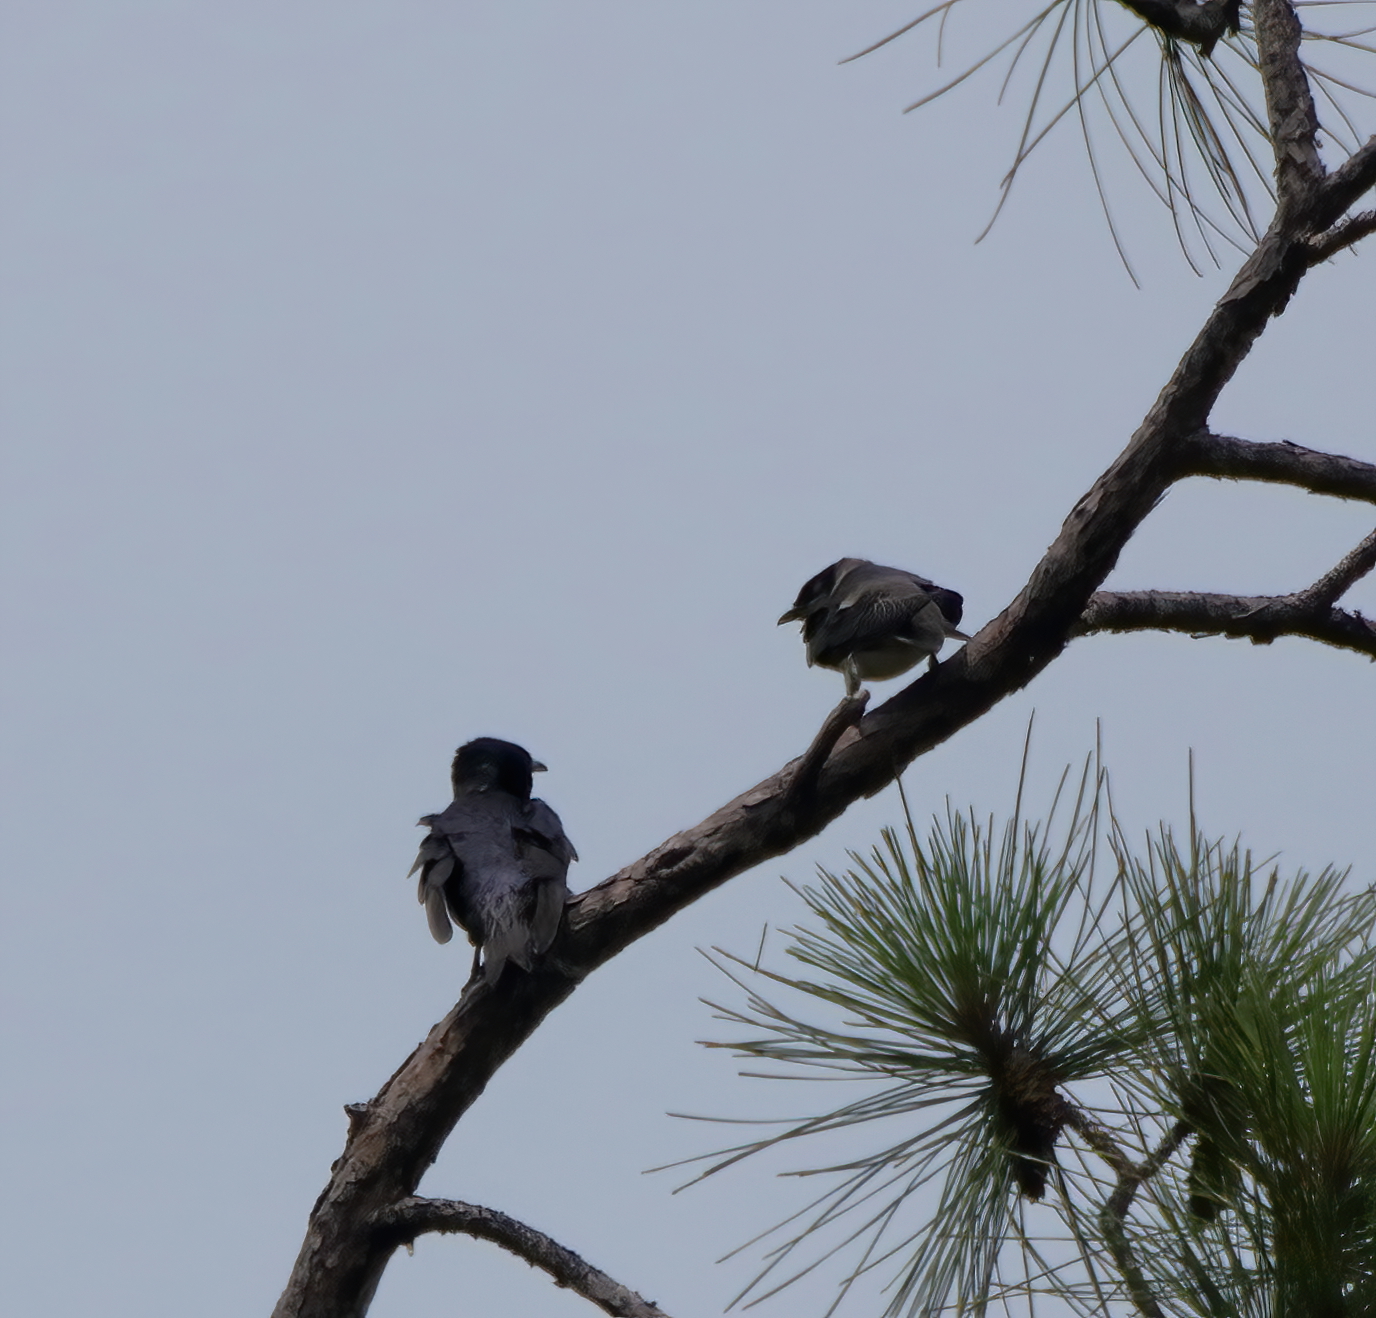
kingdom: Animalia
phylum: Chordata
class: Aves
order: Passeriformes
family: Hirundinidae
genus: Progne
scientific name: Progne subis
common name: Purple martin
